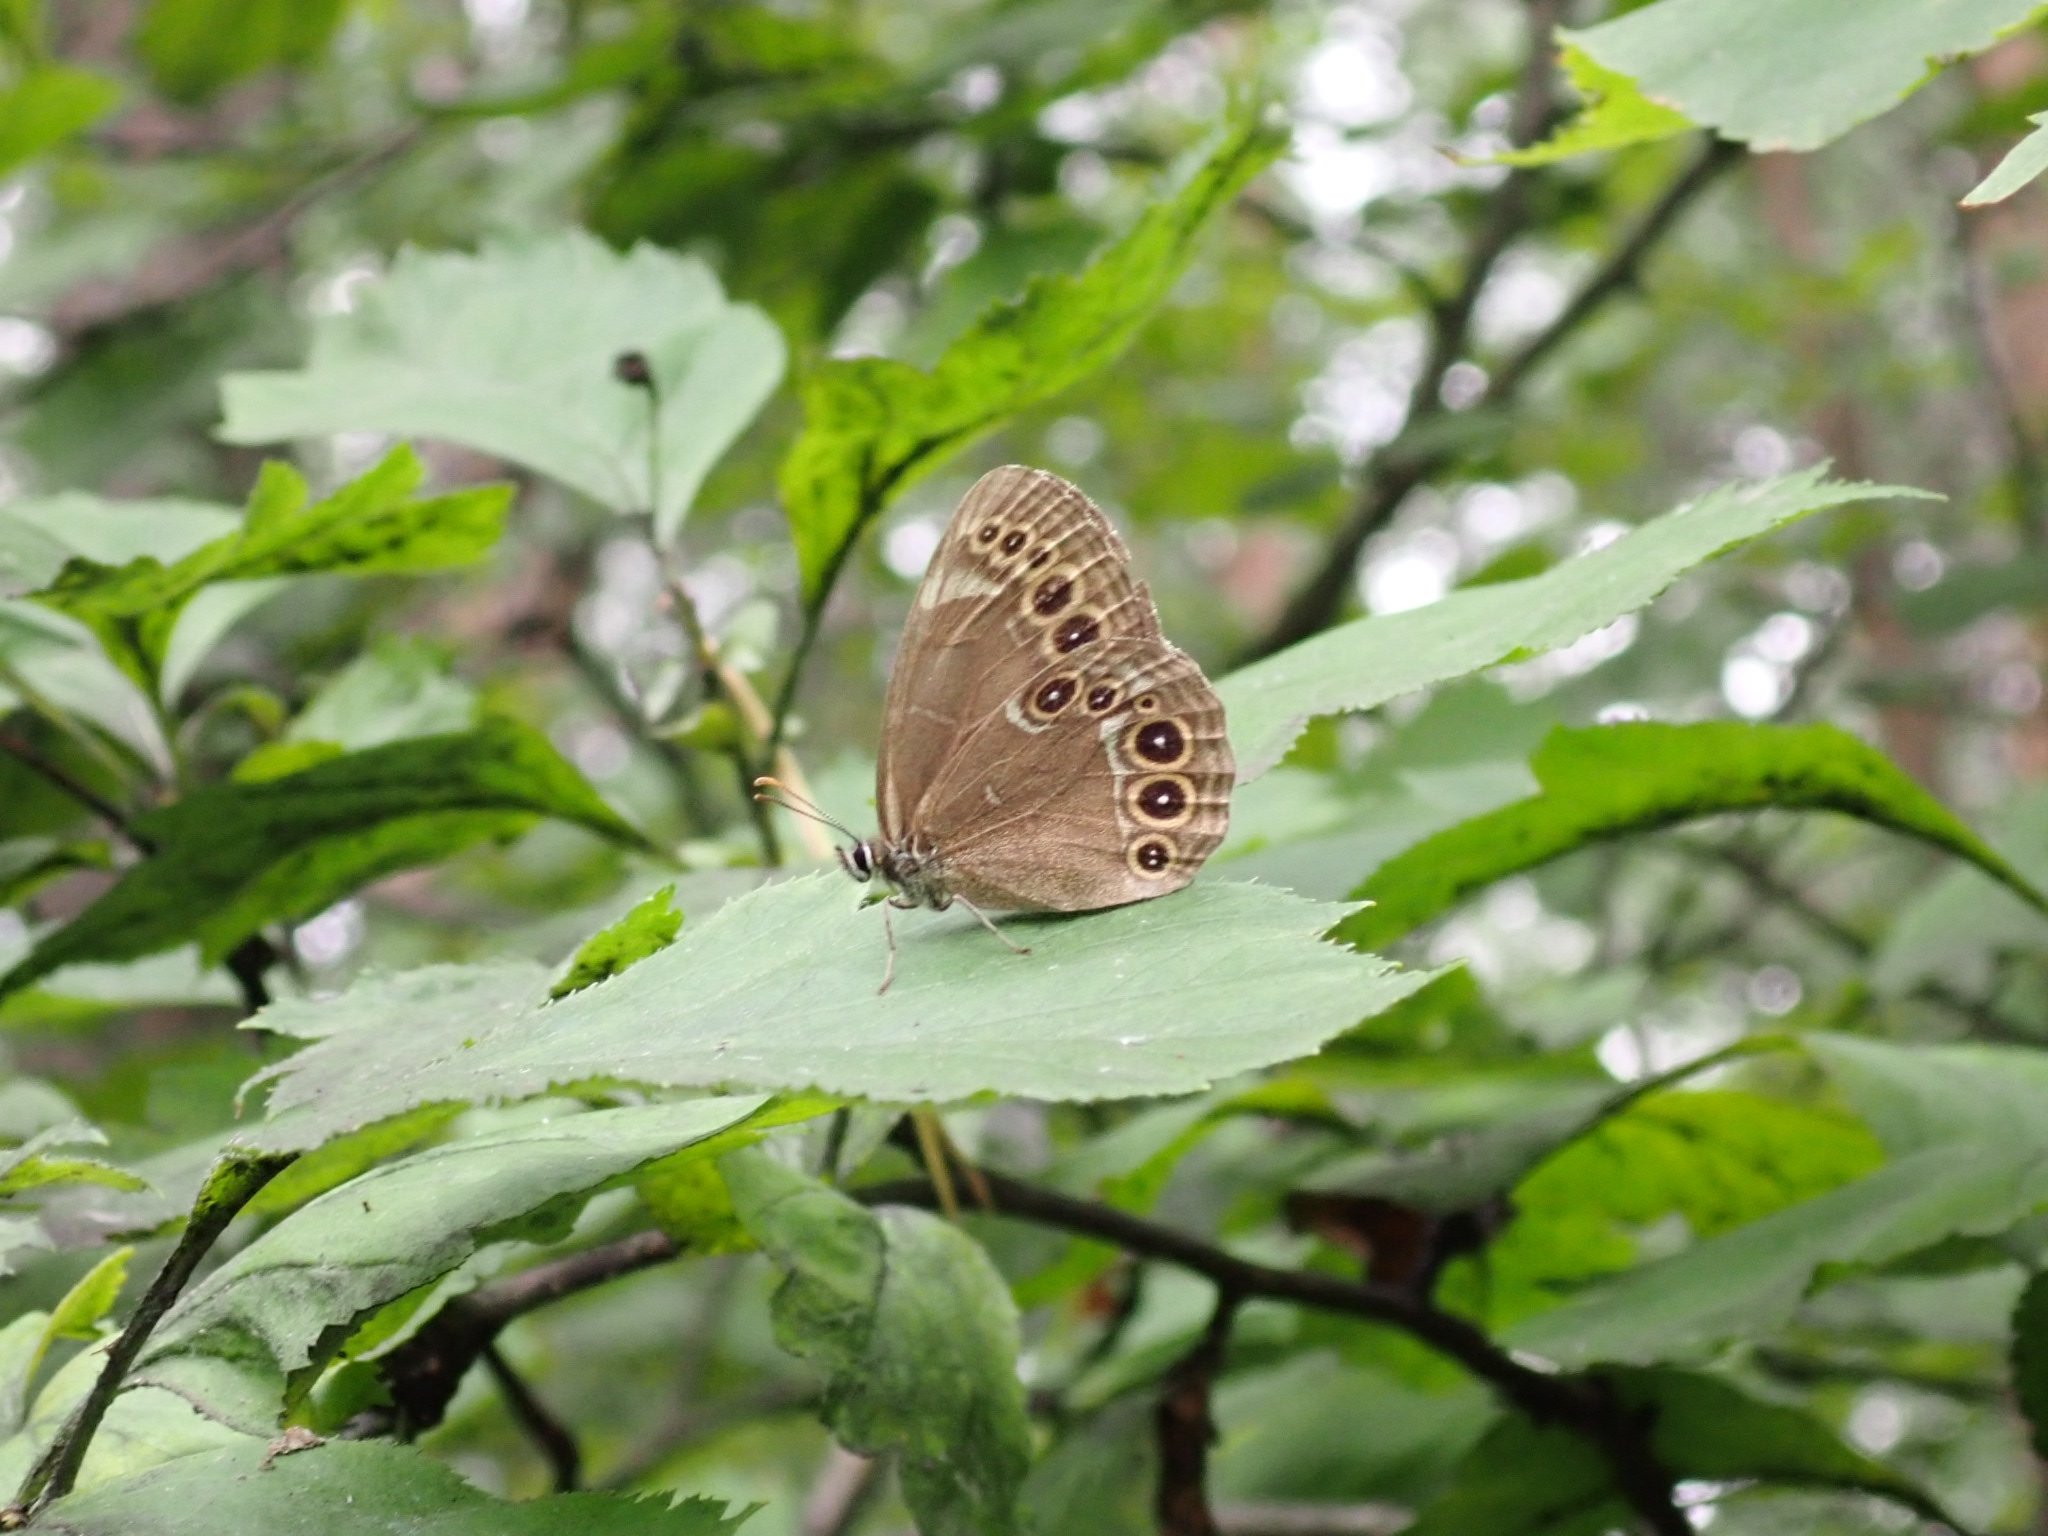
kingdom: Animalia
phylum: Arthropoda
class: Insecta
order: Lepidoptera
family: Nymphalidae
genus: Pararge
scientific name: Pararge Lopinga achine
